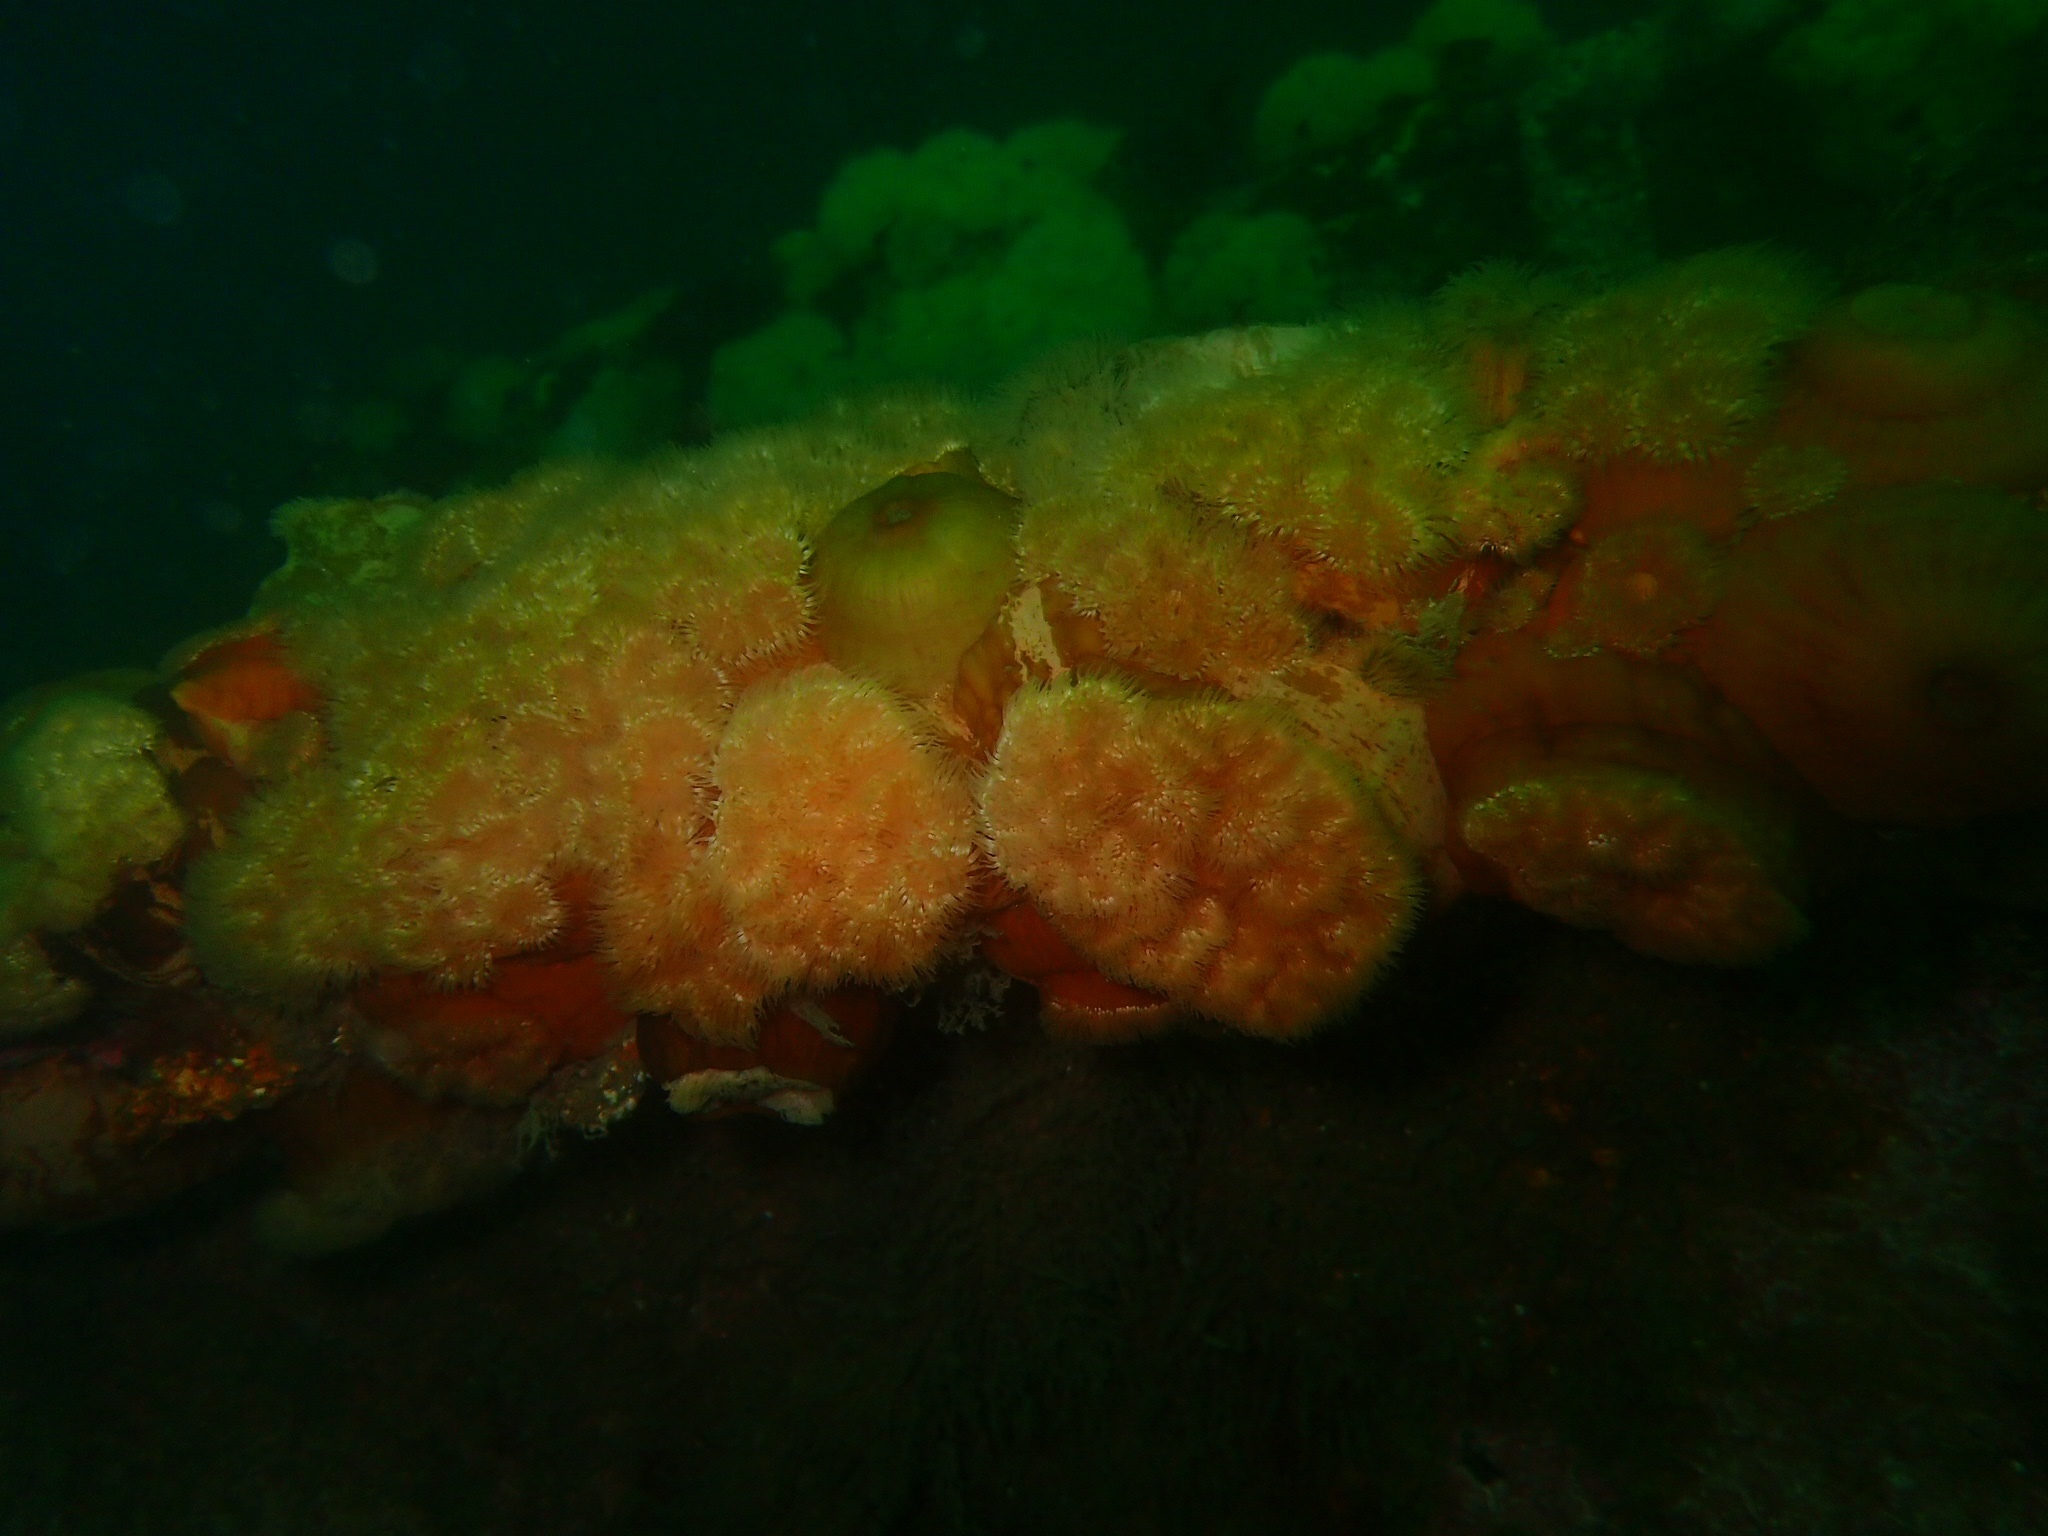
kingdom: Animalia
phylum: Cnidaria
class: Anthozoa
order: Actiniaria
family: Metridiidae
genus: Metridium
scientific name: Metridium senile
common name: Clonal plumose anemone
